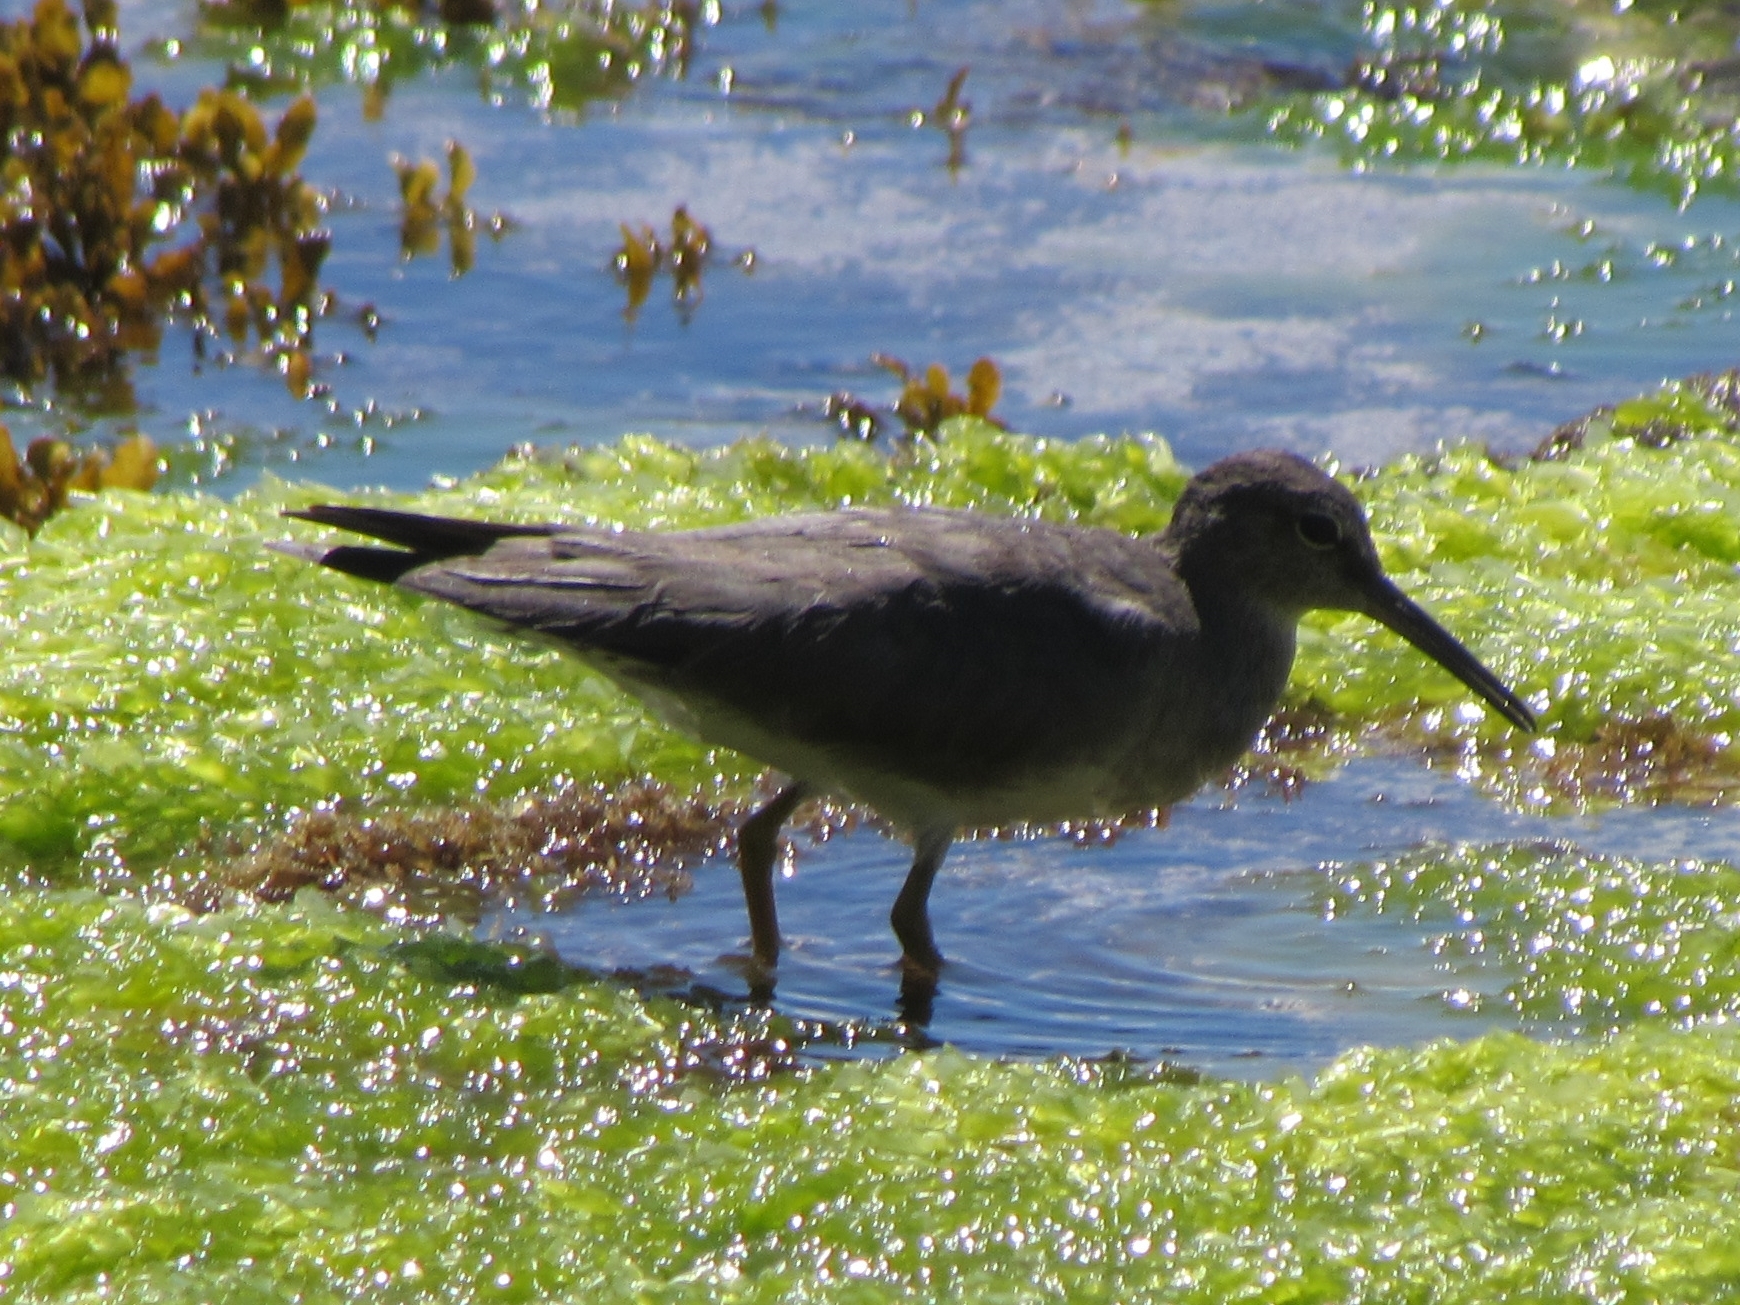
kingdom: Animalia
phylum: Chordata
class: Aves
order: Charadriiformes
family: Scolopacidae
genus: Tringa
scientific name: Tringa incana
